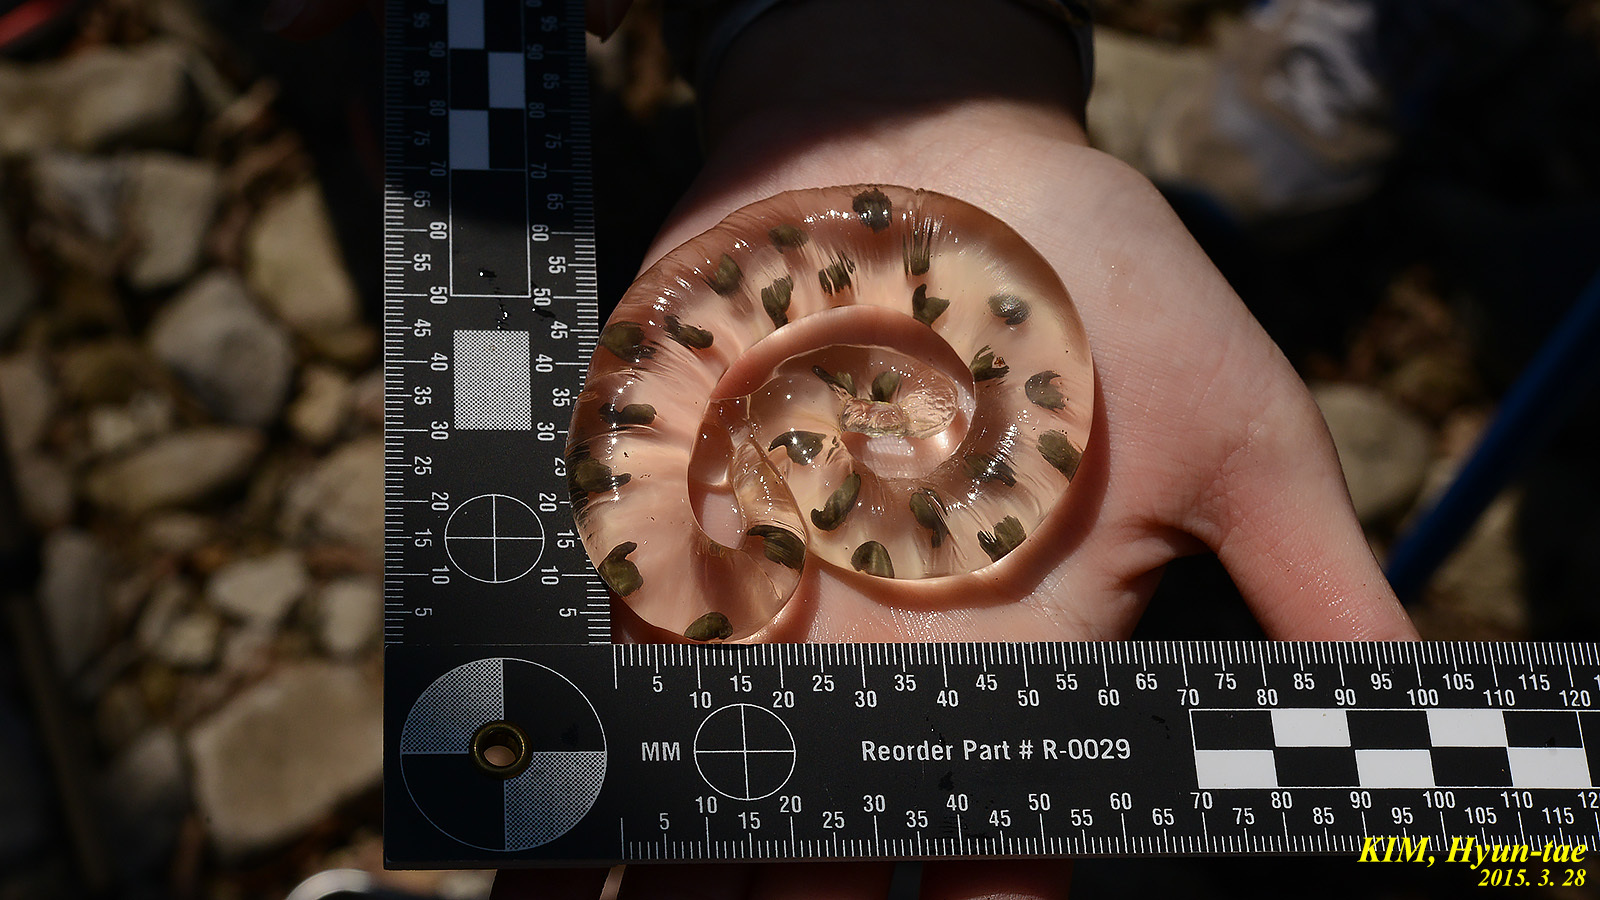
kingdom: Animalia
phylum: Chordata
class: Amphibia
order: Caudata
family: Hynobiidae
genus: Hynobius
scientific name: Hynobius leechii
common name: Gensan salamander
